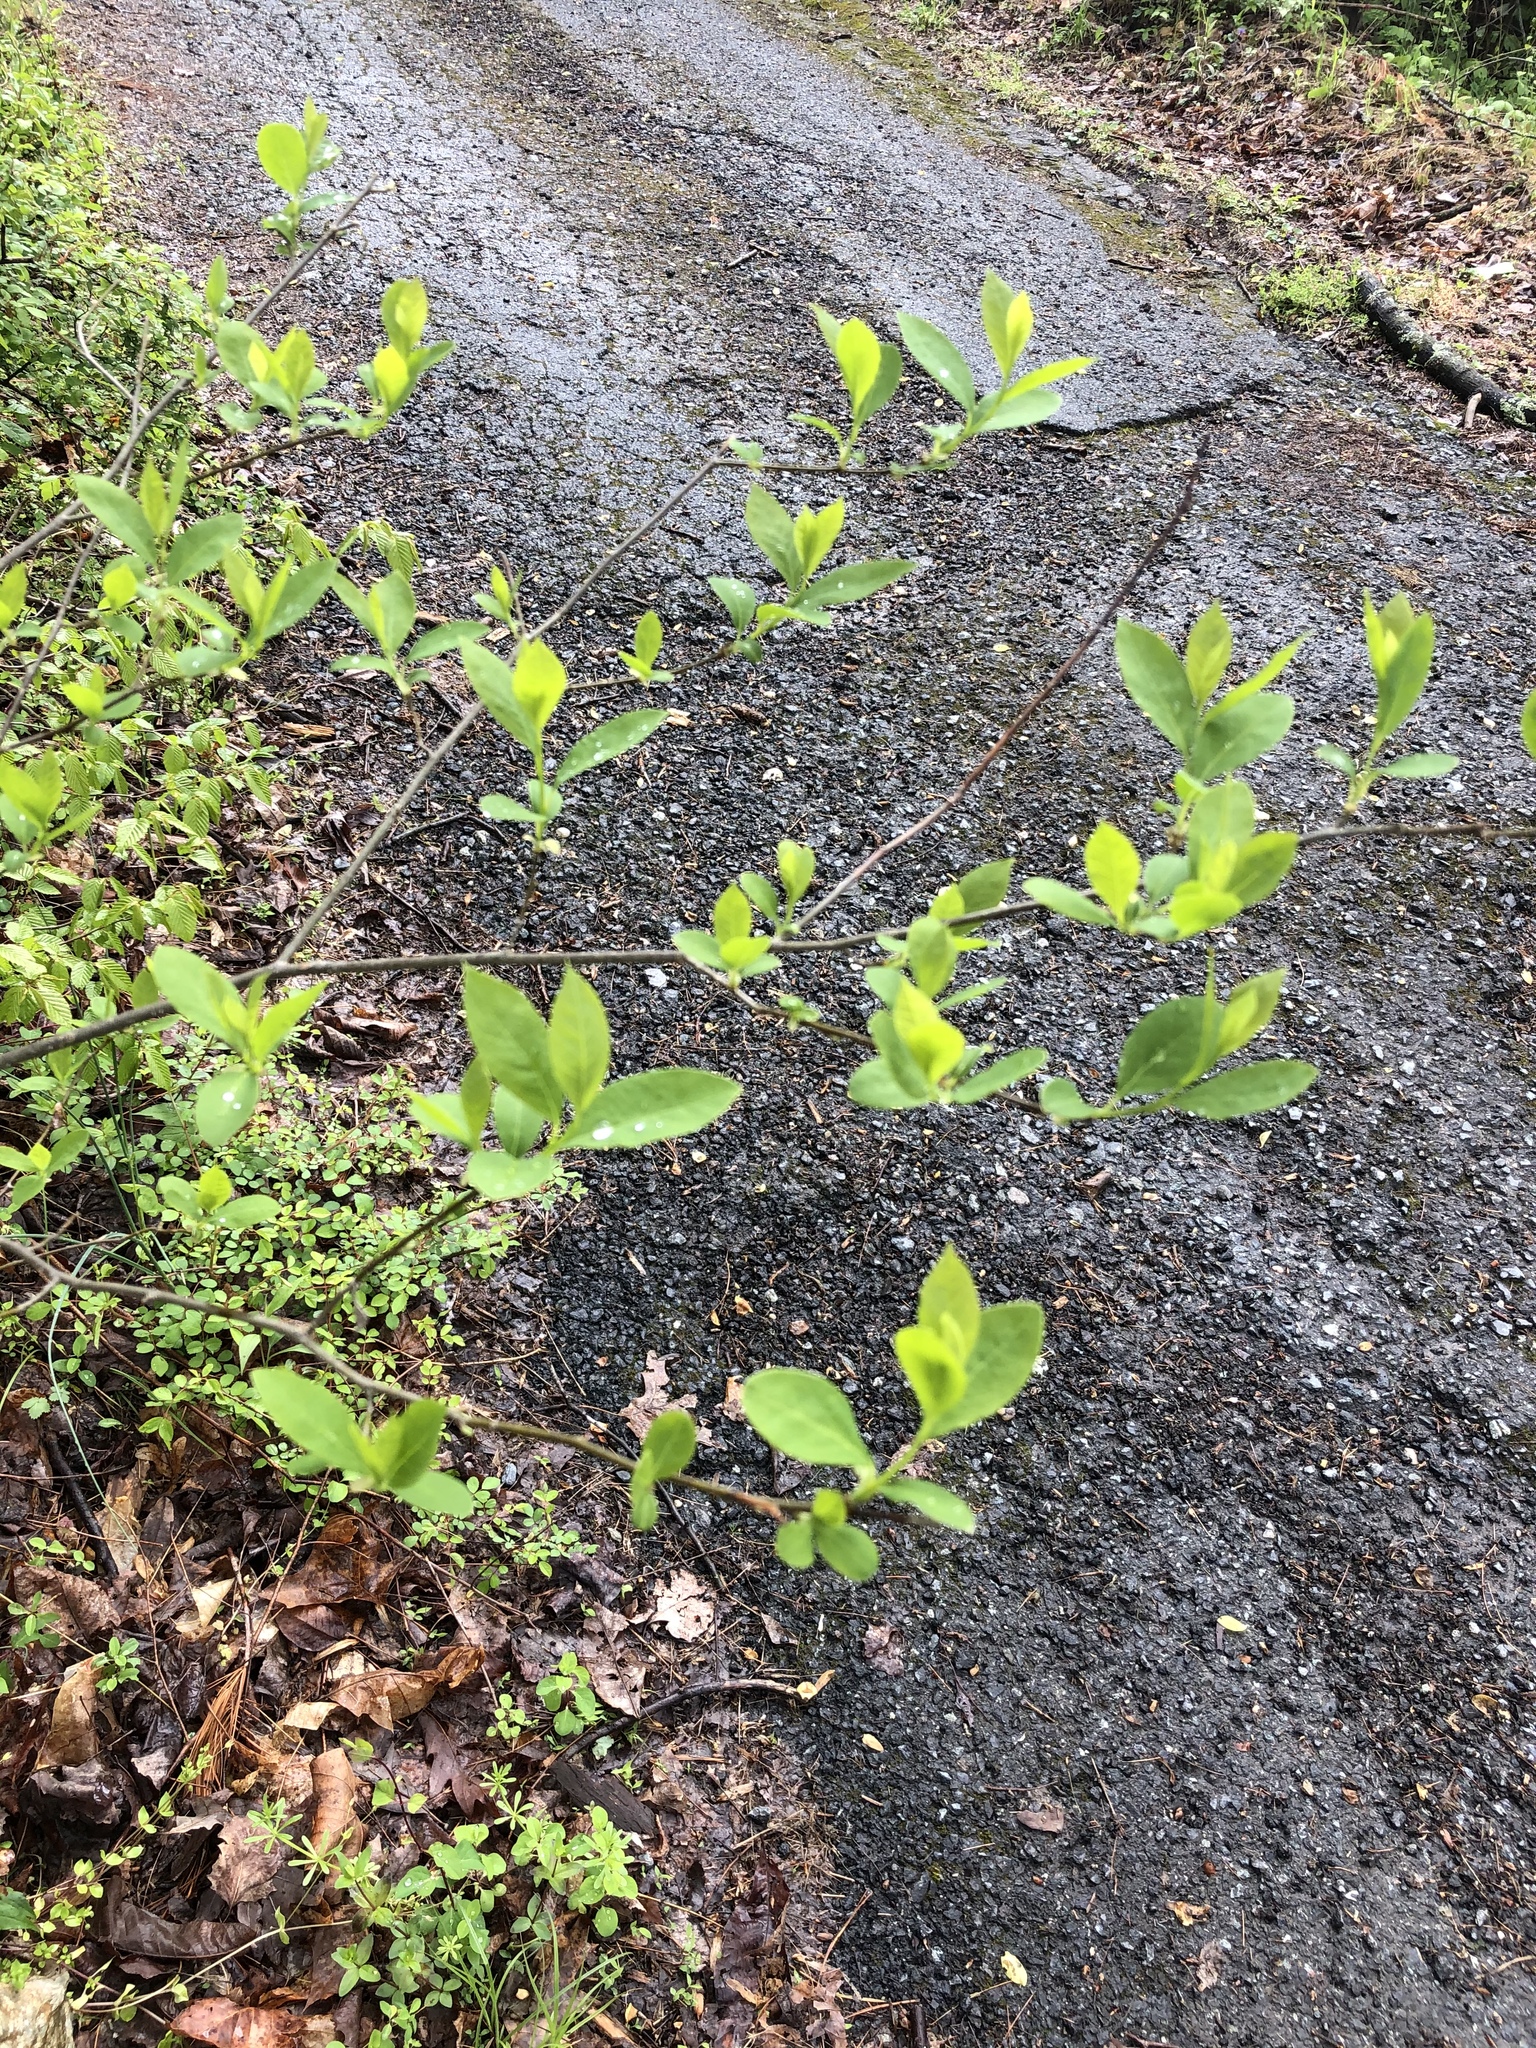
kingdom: Plantae
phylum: Tracheophyta
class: Magnoliopsida
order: Laurales
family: Lauraceae
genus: Lindera
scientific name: Lindera benzoin
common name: Spicebush
